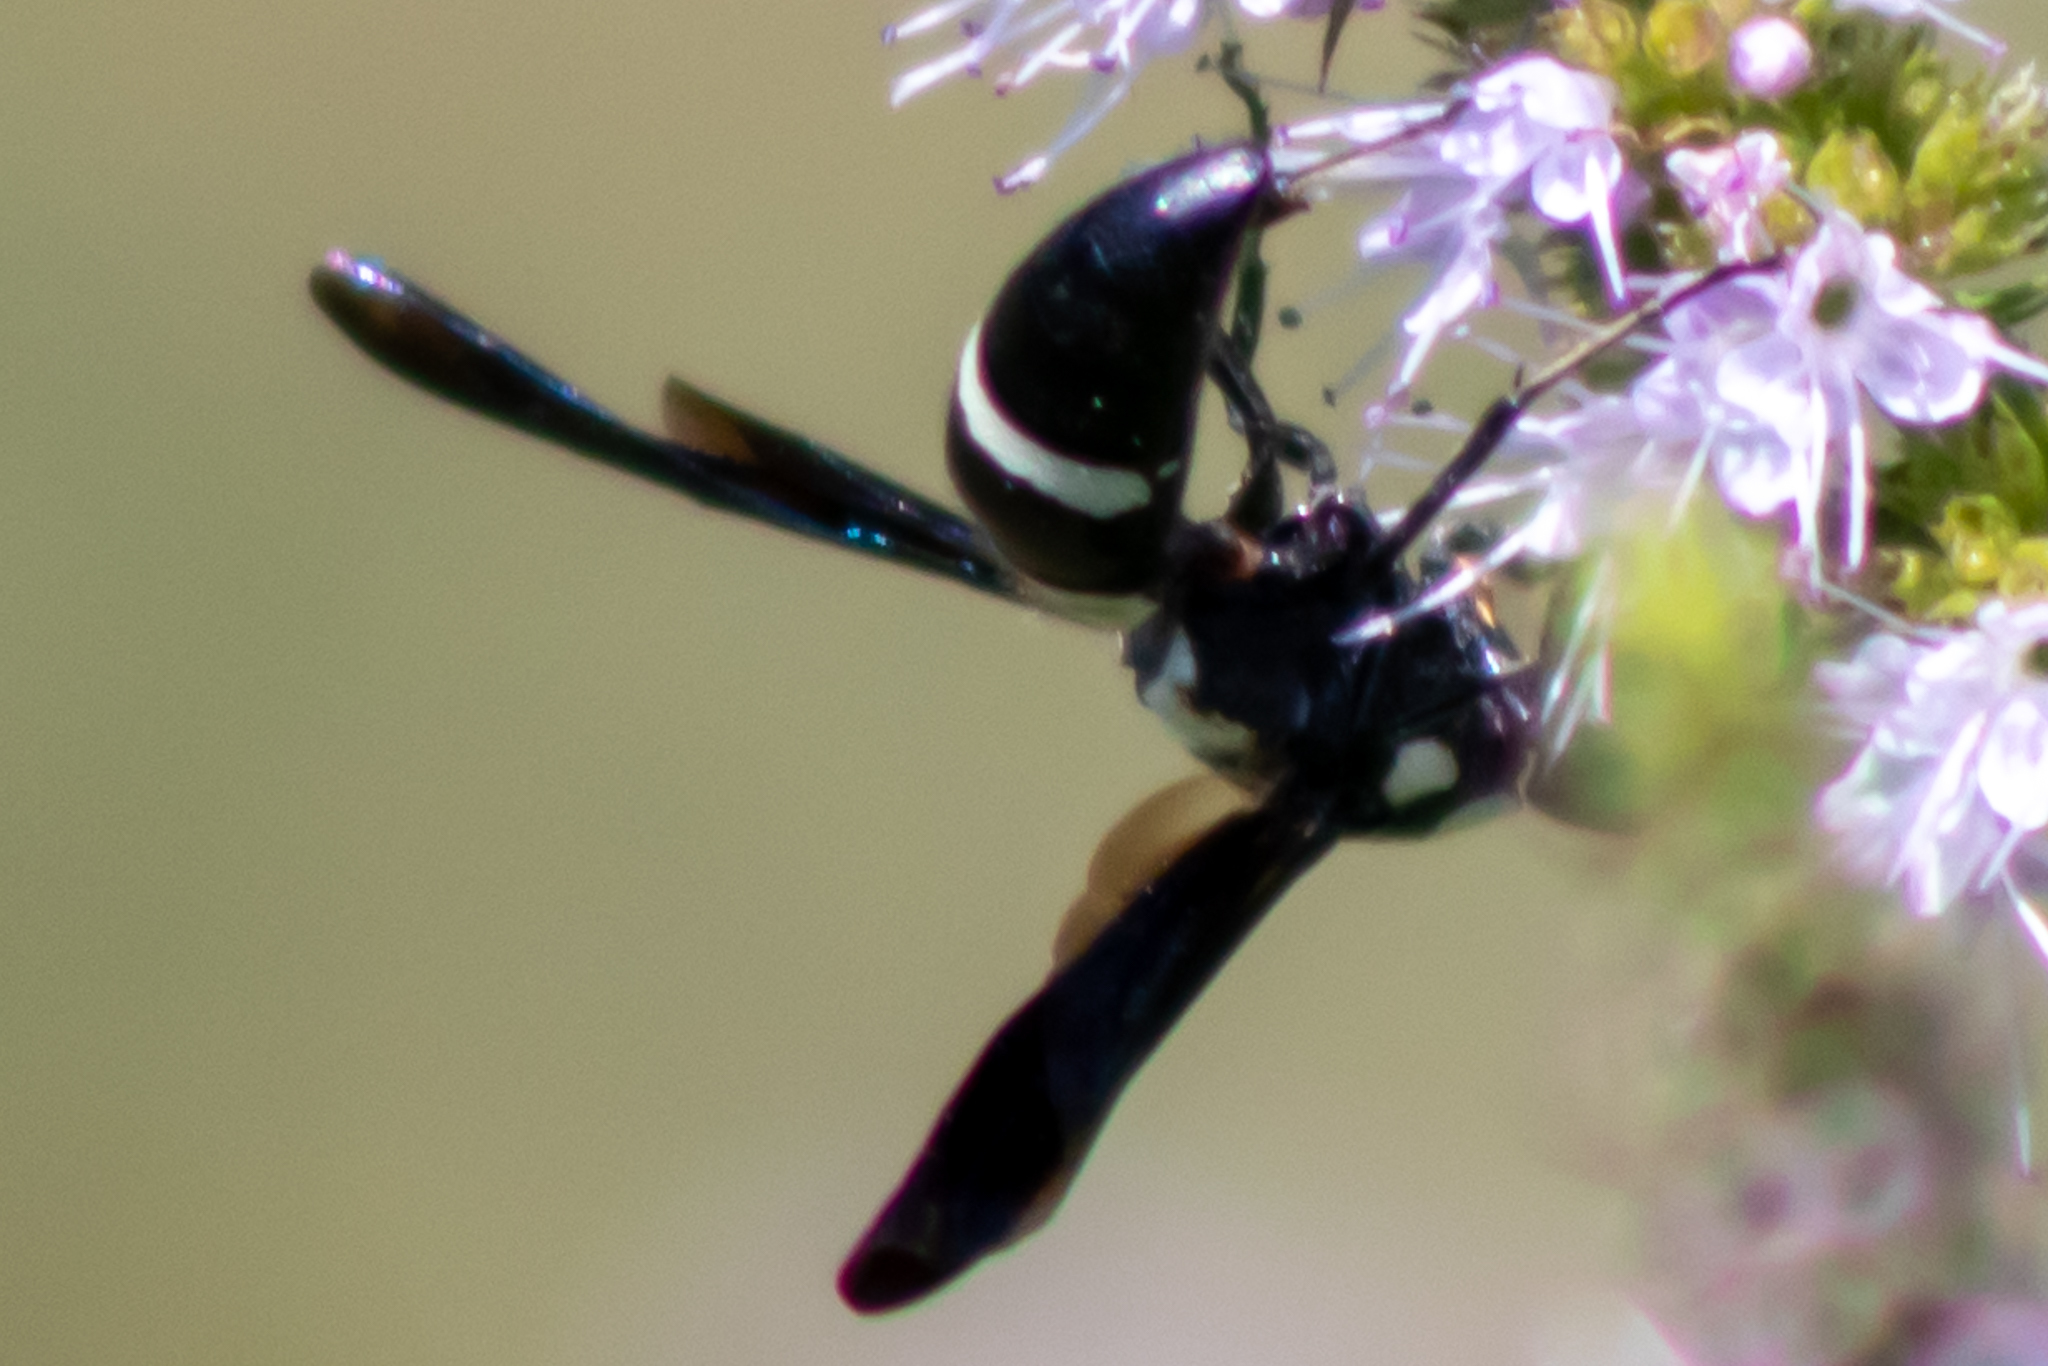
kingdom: Animalia
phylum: Arthropoda
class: Insecta
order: Hymenoptera
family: Eumenidae
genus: Pseudodynerus
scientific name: Pseudodynerus quadrisectus
